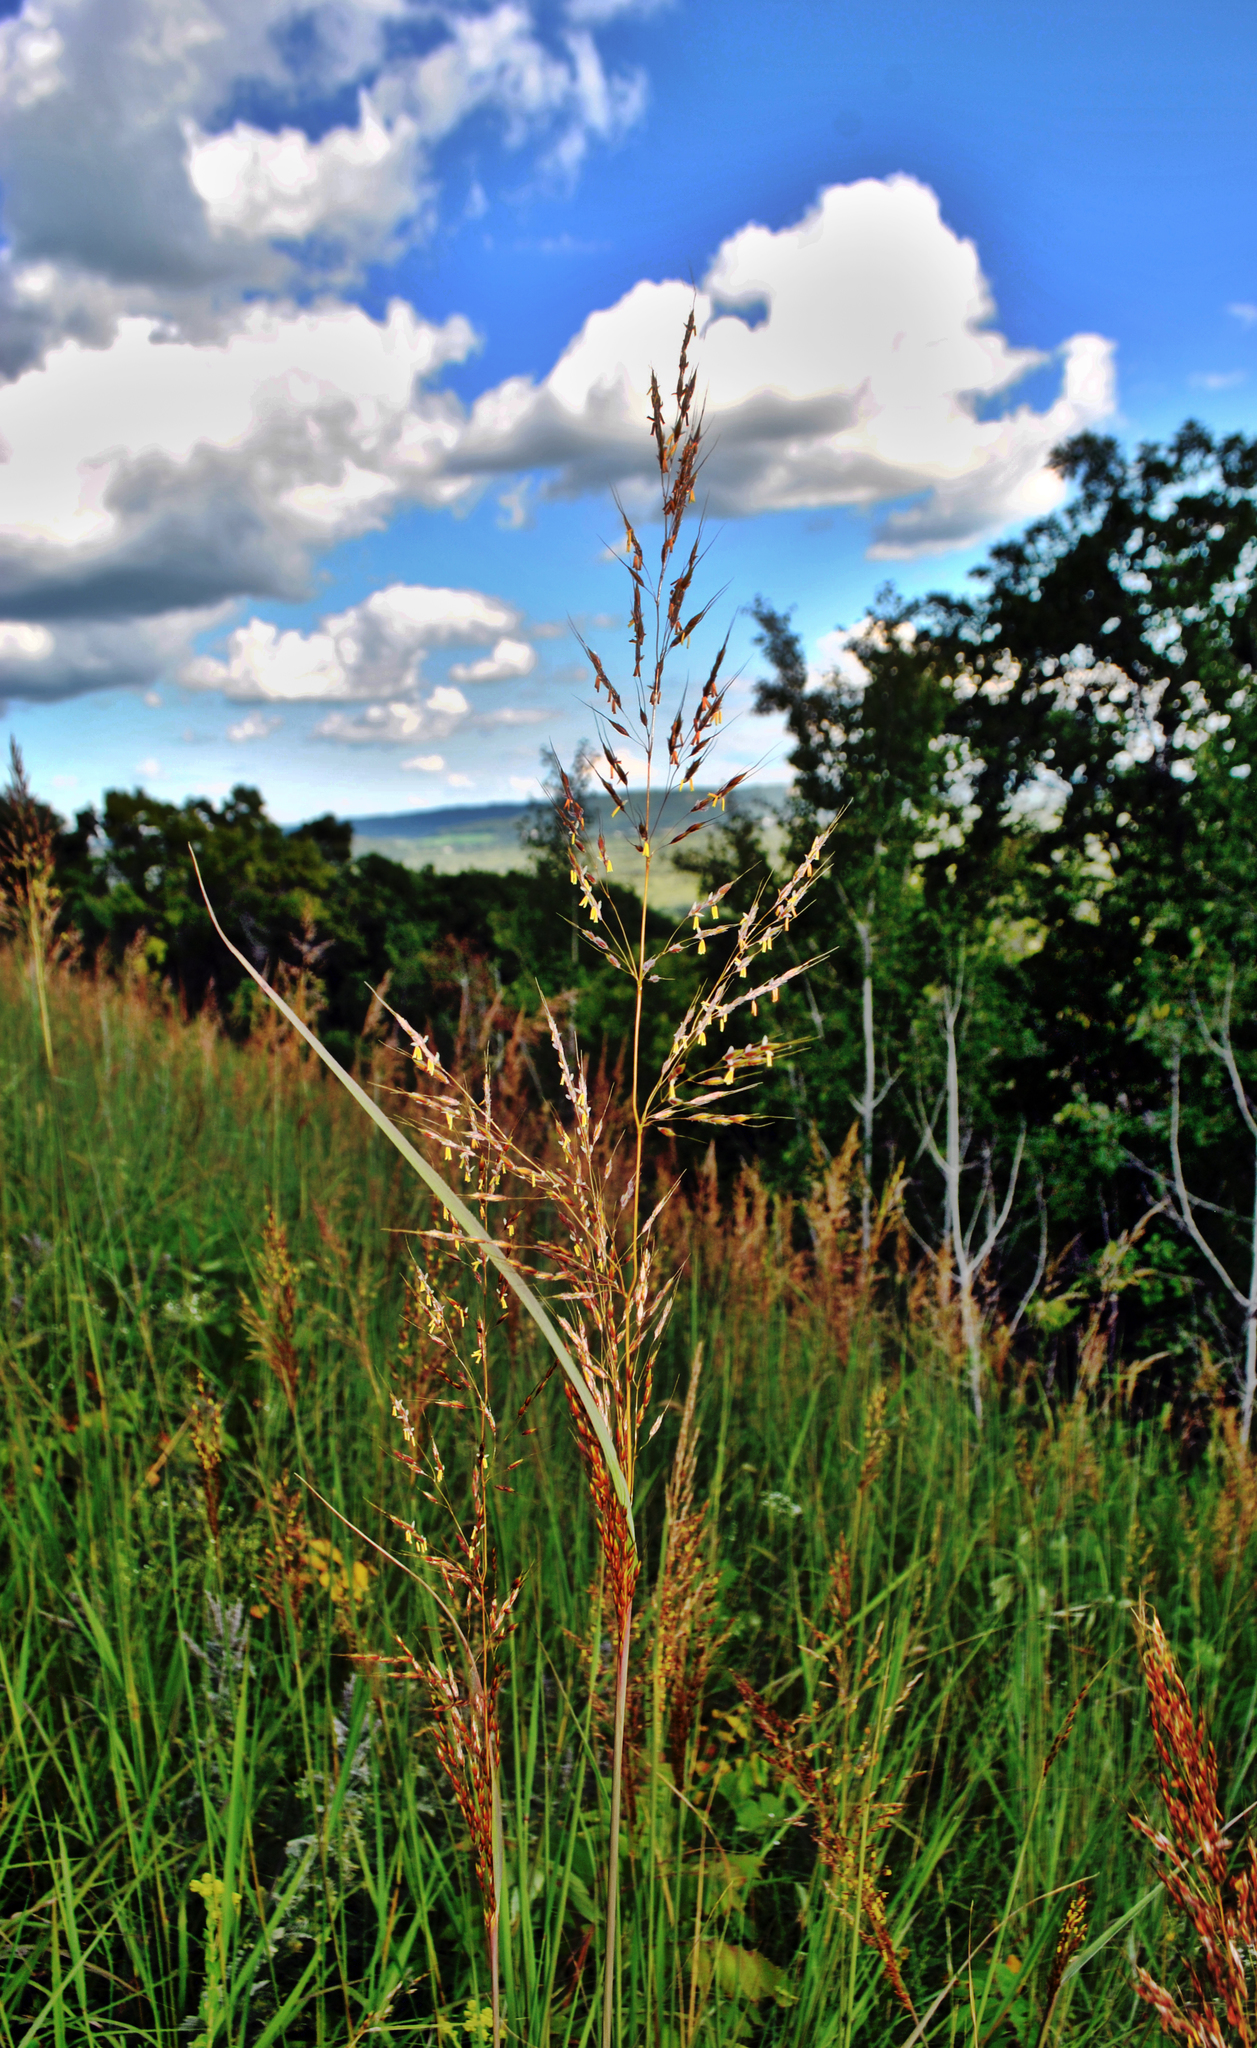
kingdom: Plantae
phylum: Tracheophyta
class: Liliopsida
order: Poales
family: Poaceae
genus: Sorghastrum
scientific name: Sorghastrum nutans
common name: Indian grass
